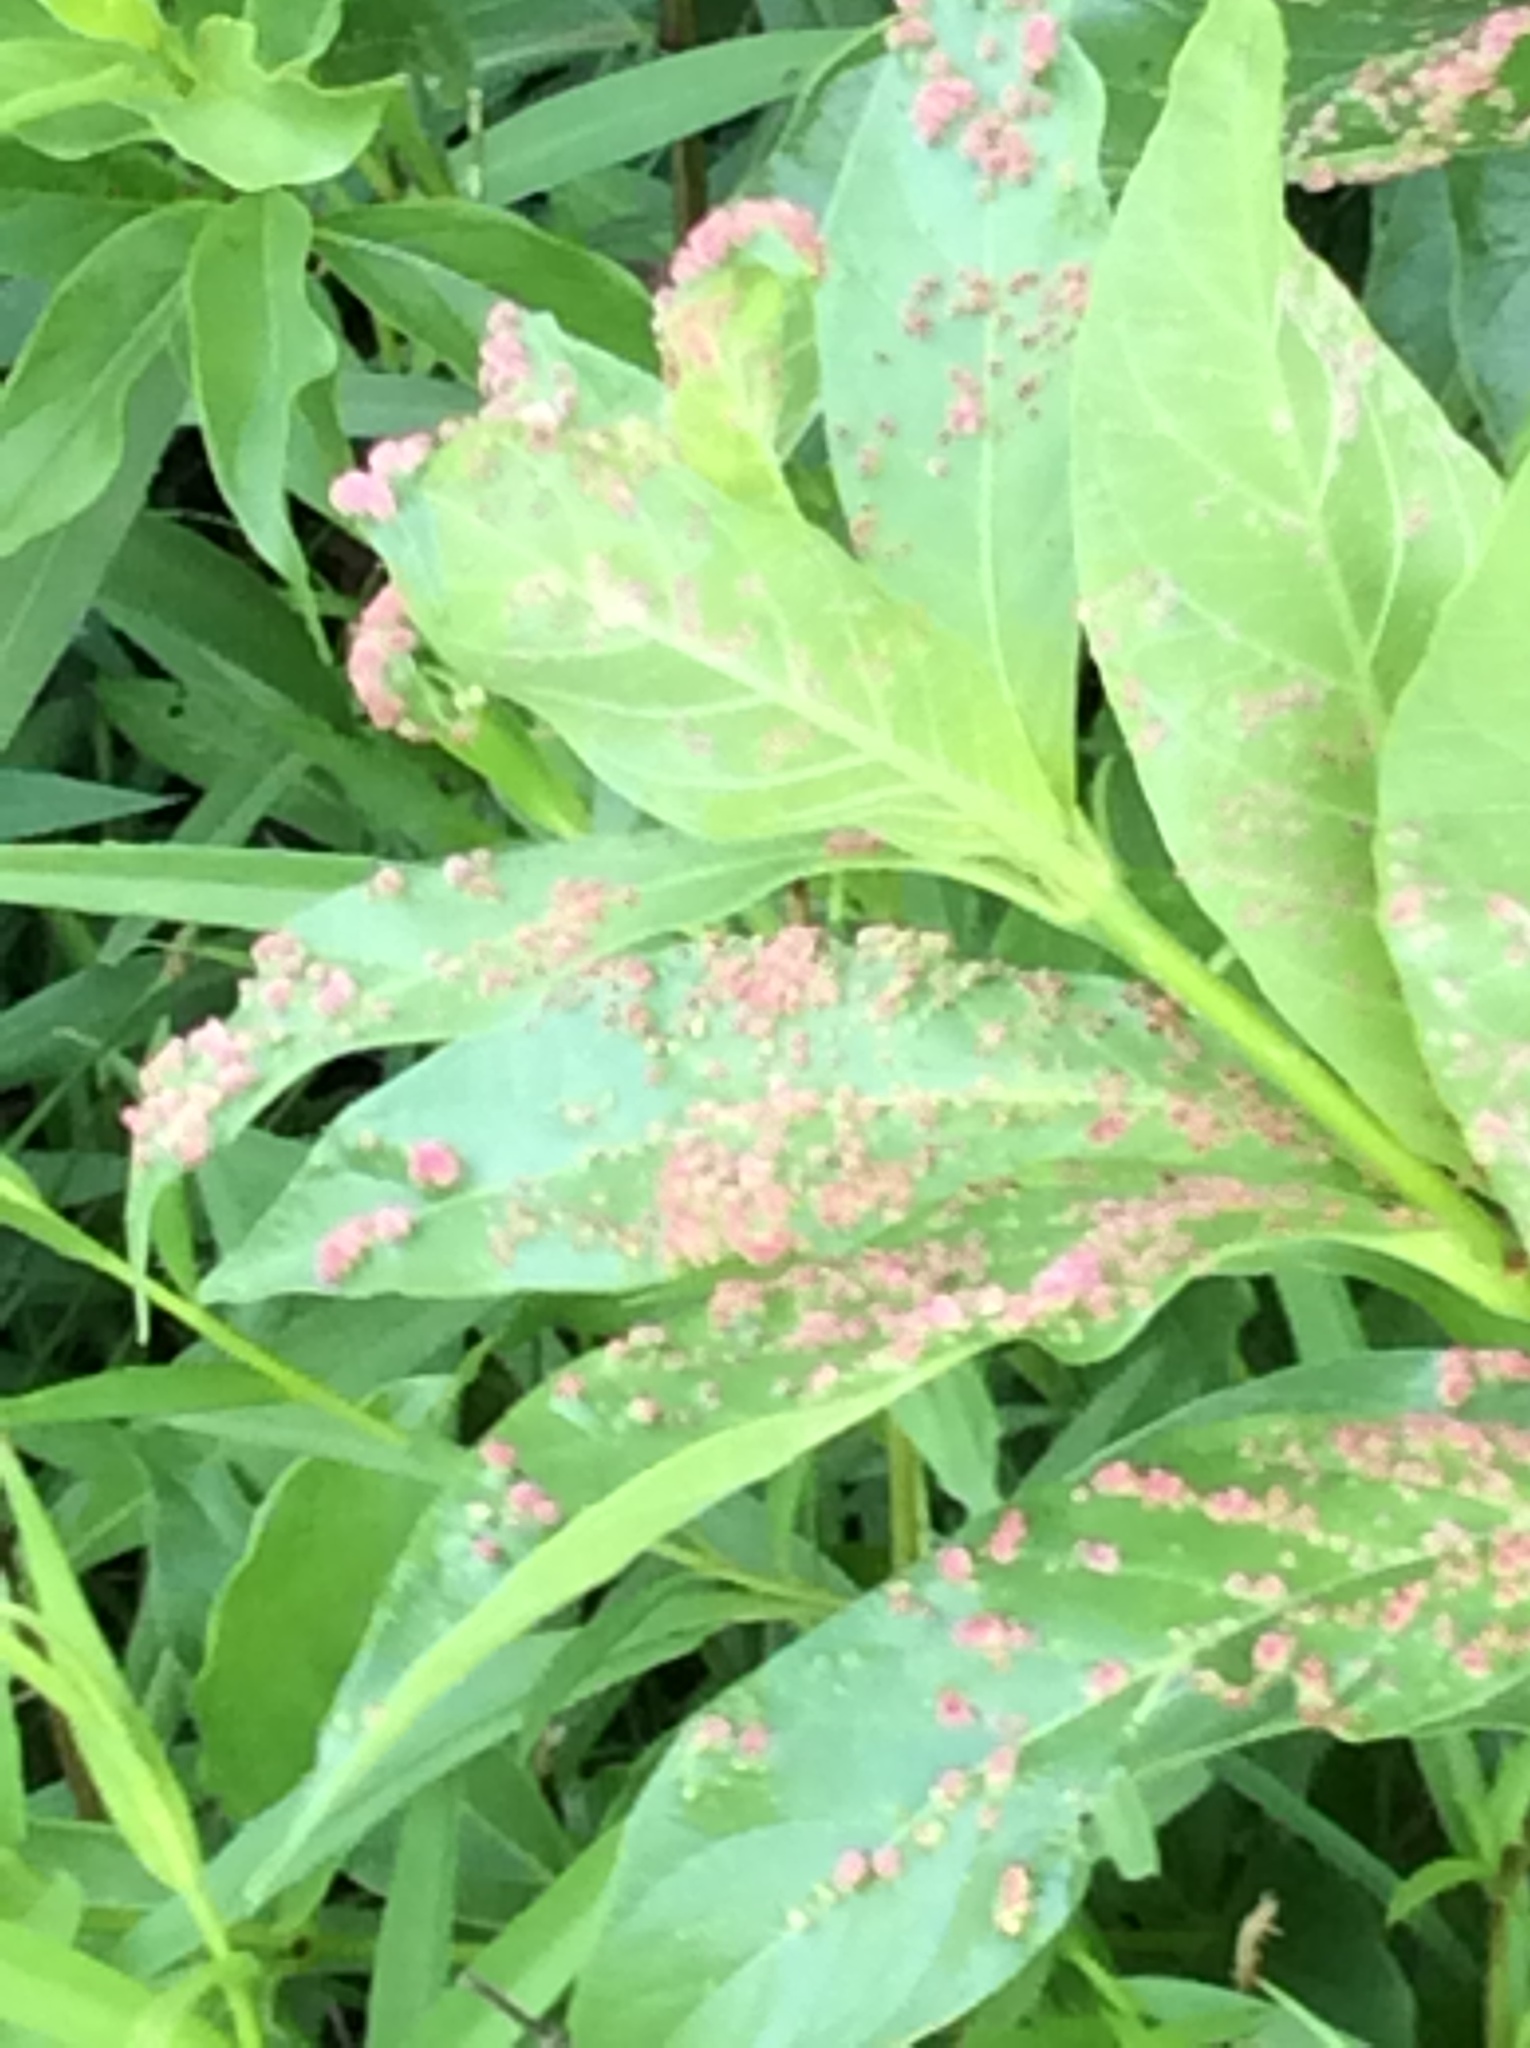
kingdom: Animalia
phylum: Arthropoda
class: Arachnida
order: Trombidiformes
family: Eriophyidae
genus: Aculops
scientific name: Aculops
